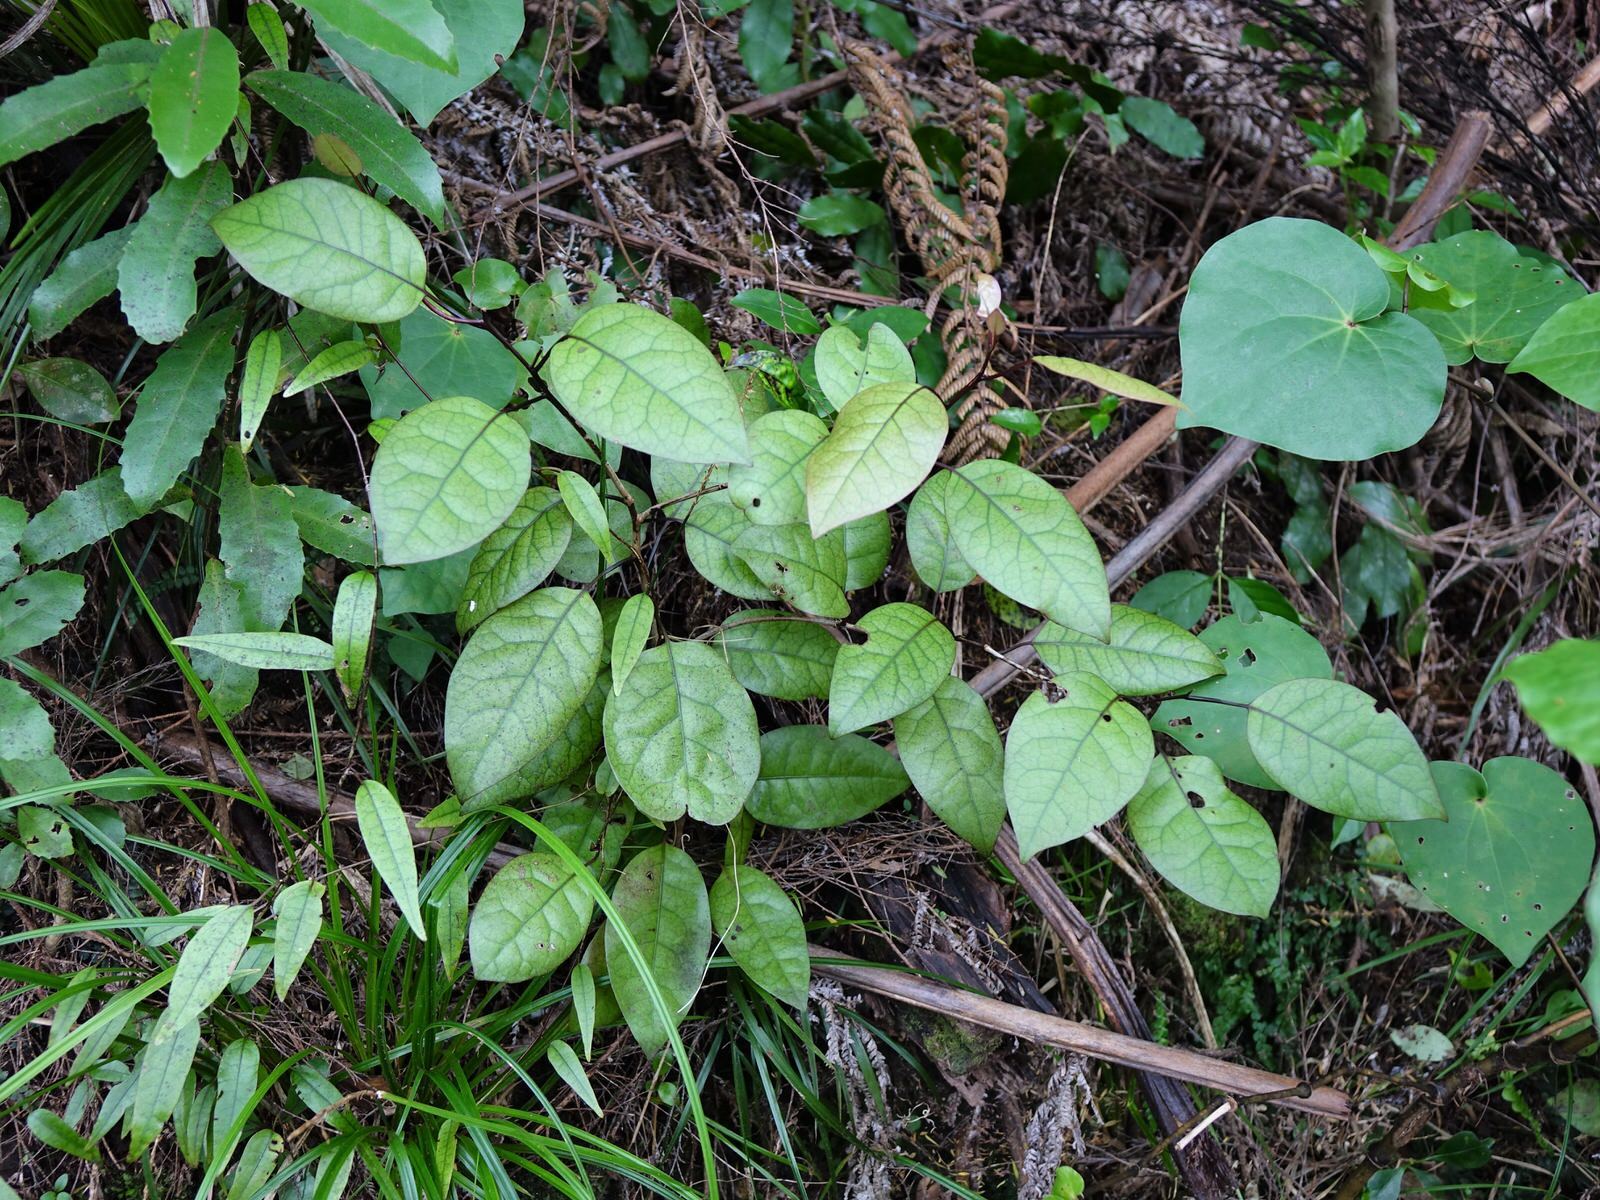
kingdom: Plantae
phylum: Tracheophyta
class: Magnoliopsida
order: Laurales
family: Lauraceae
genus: Litsea
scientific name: Litsea calicaris
